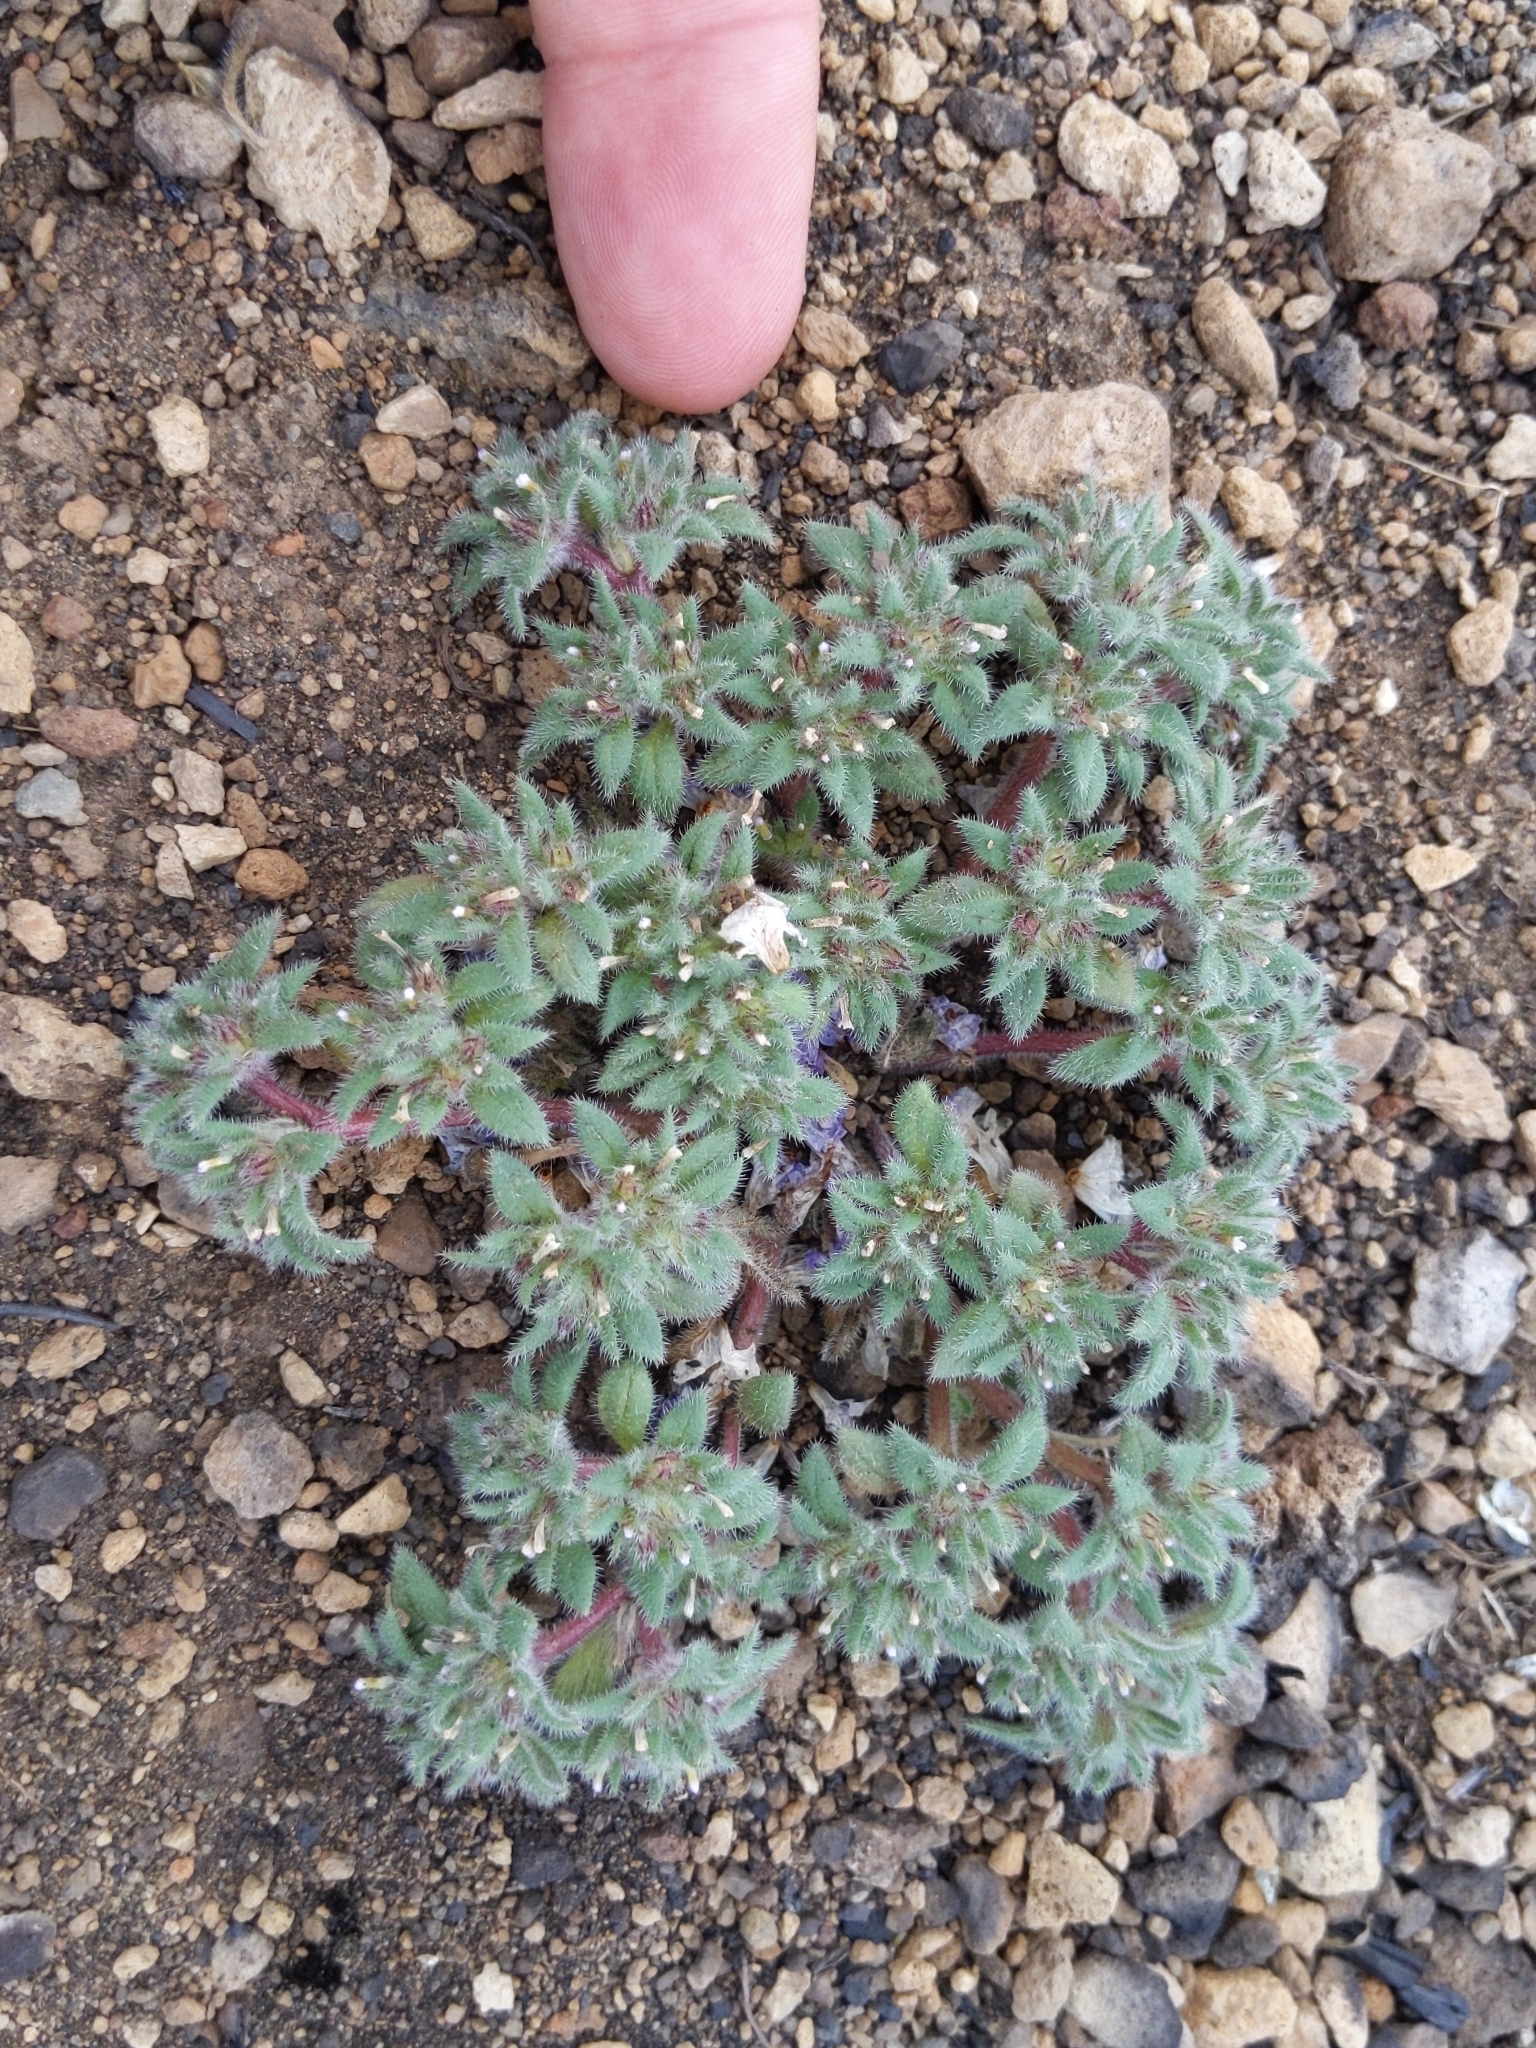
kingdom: Plantae
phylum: Tracheophyta
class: Magnoliopsida
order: Boraginales
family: Namaceae
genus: Nama
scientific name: Nama densa
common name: Leafy nama
